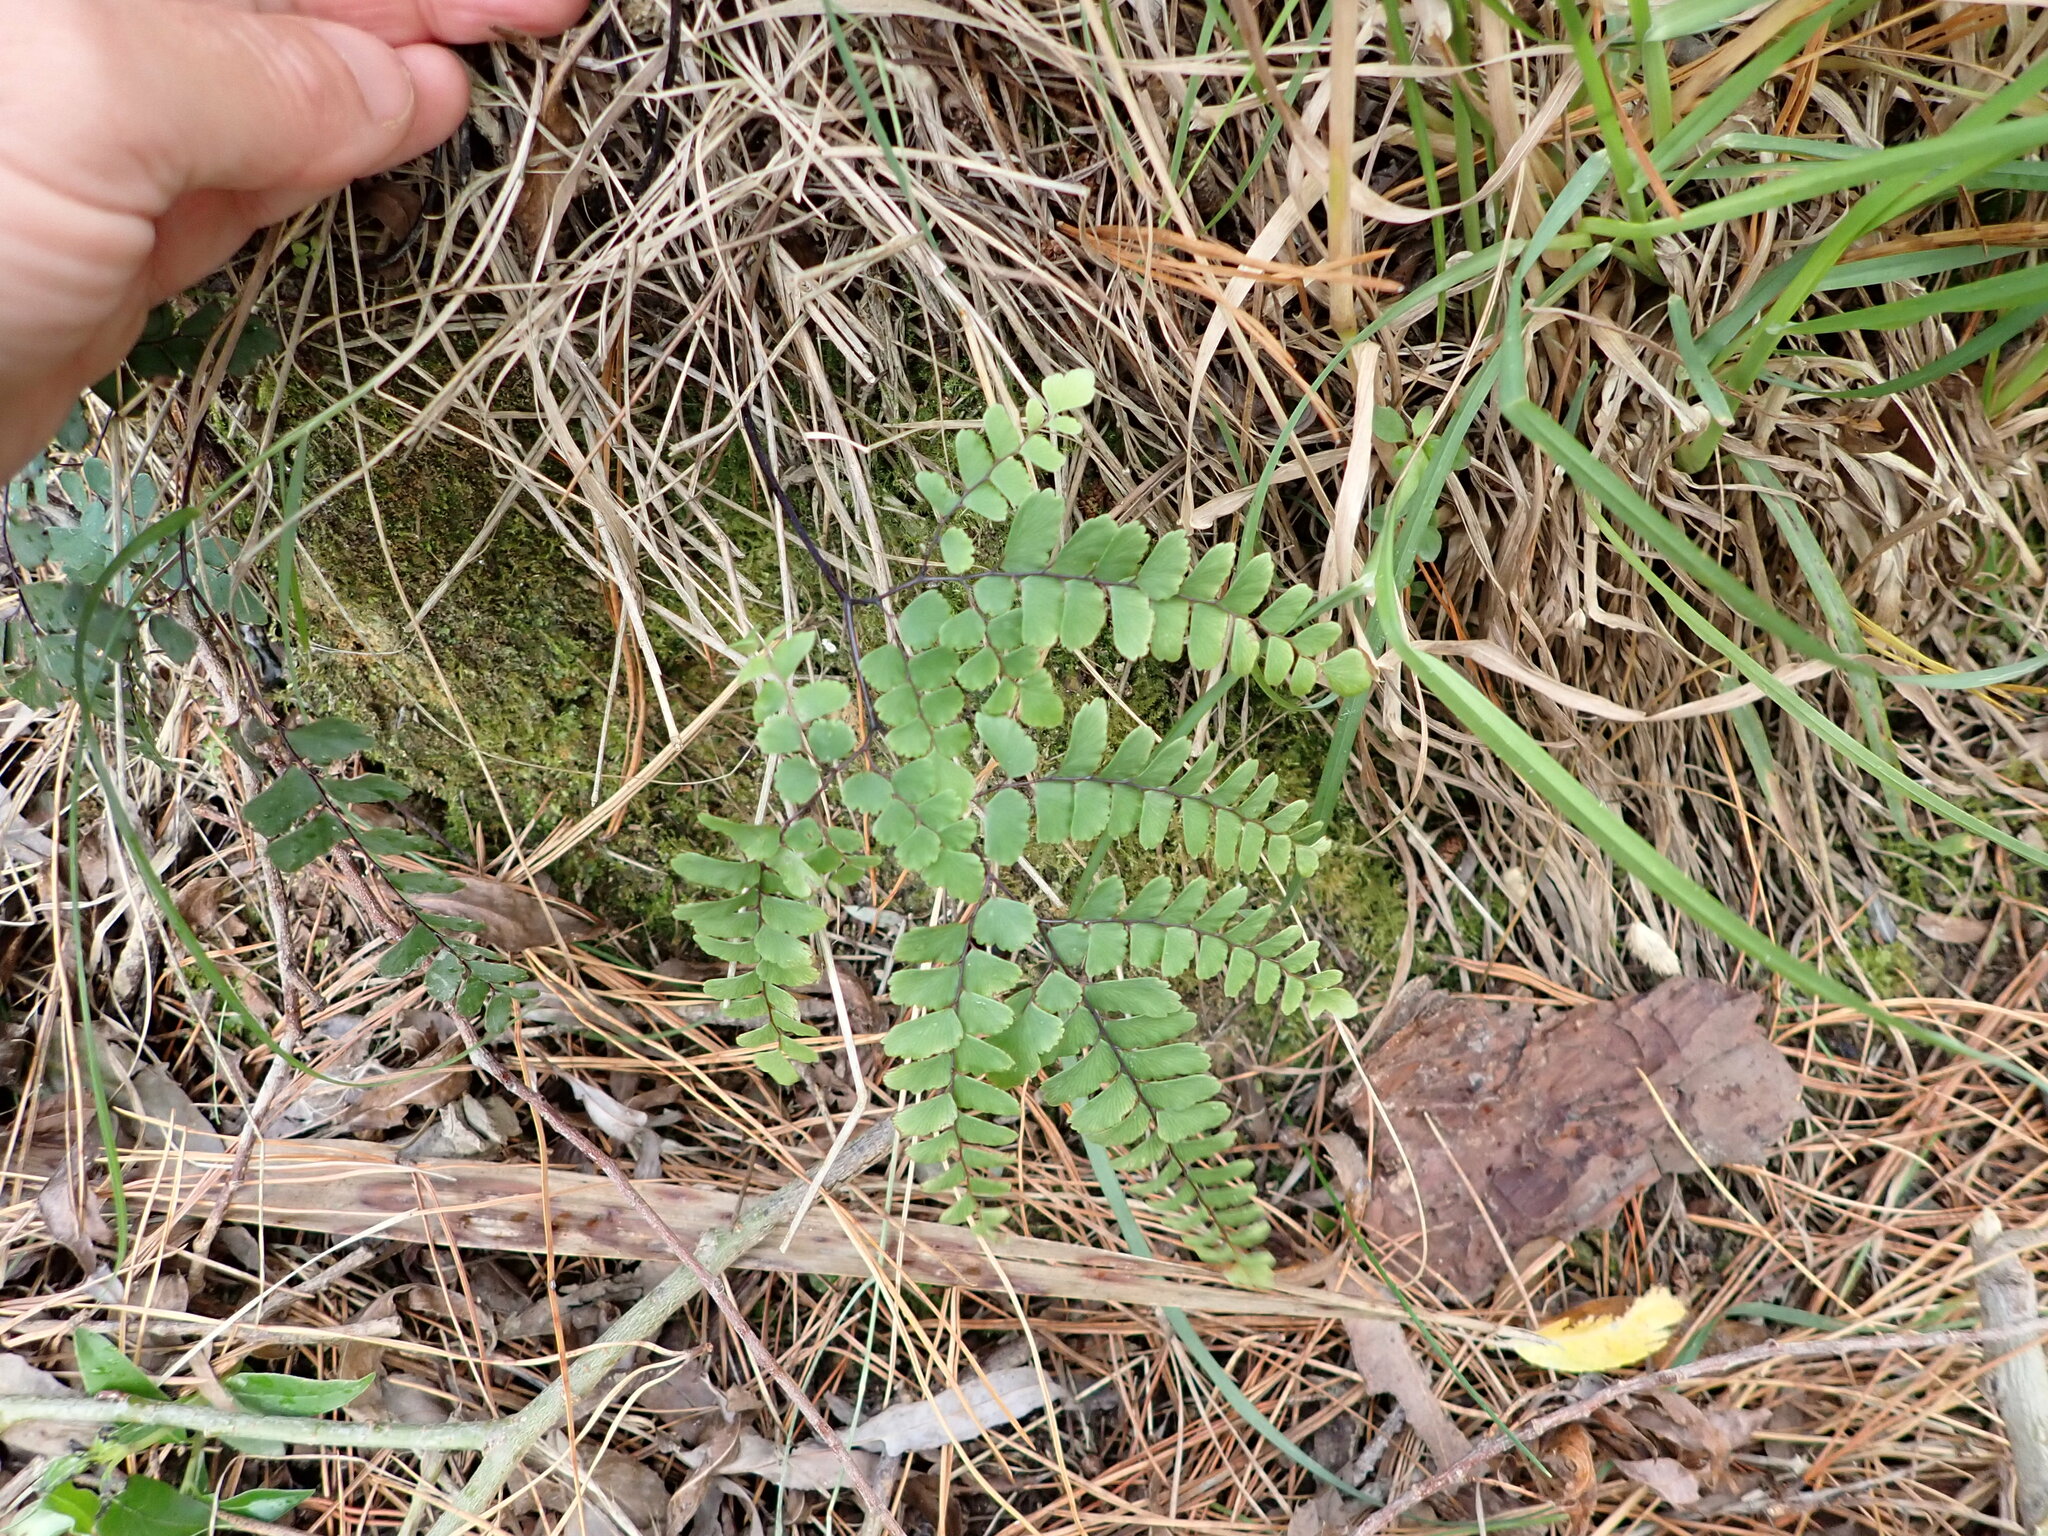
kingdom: Plantae
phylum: Tracheophyta
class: Polypodiopsida
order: Polypodiales
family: Pteridaceae
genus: Adiantum
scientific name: Adiantum cunninghamii
